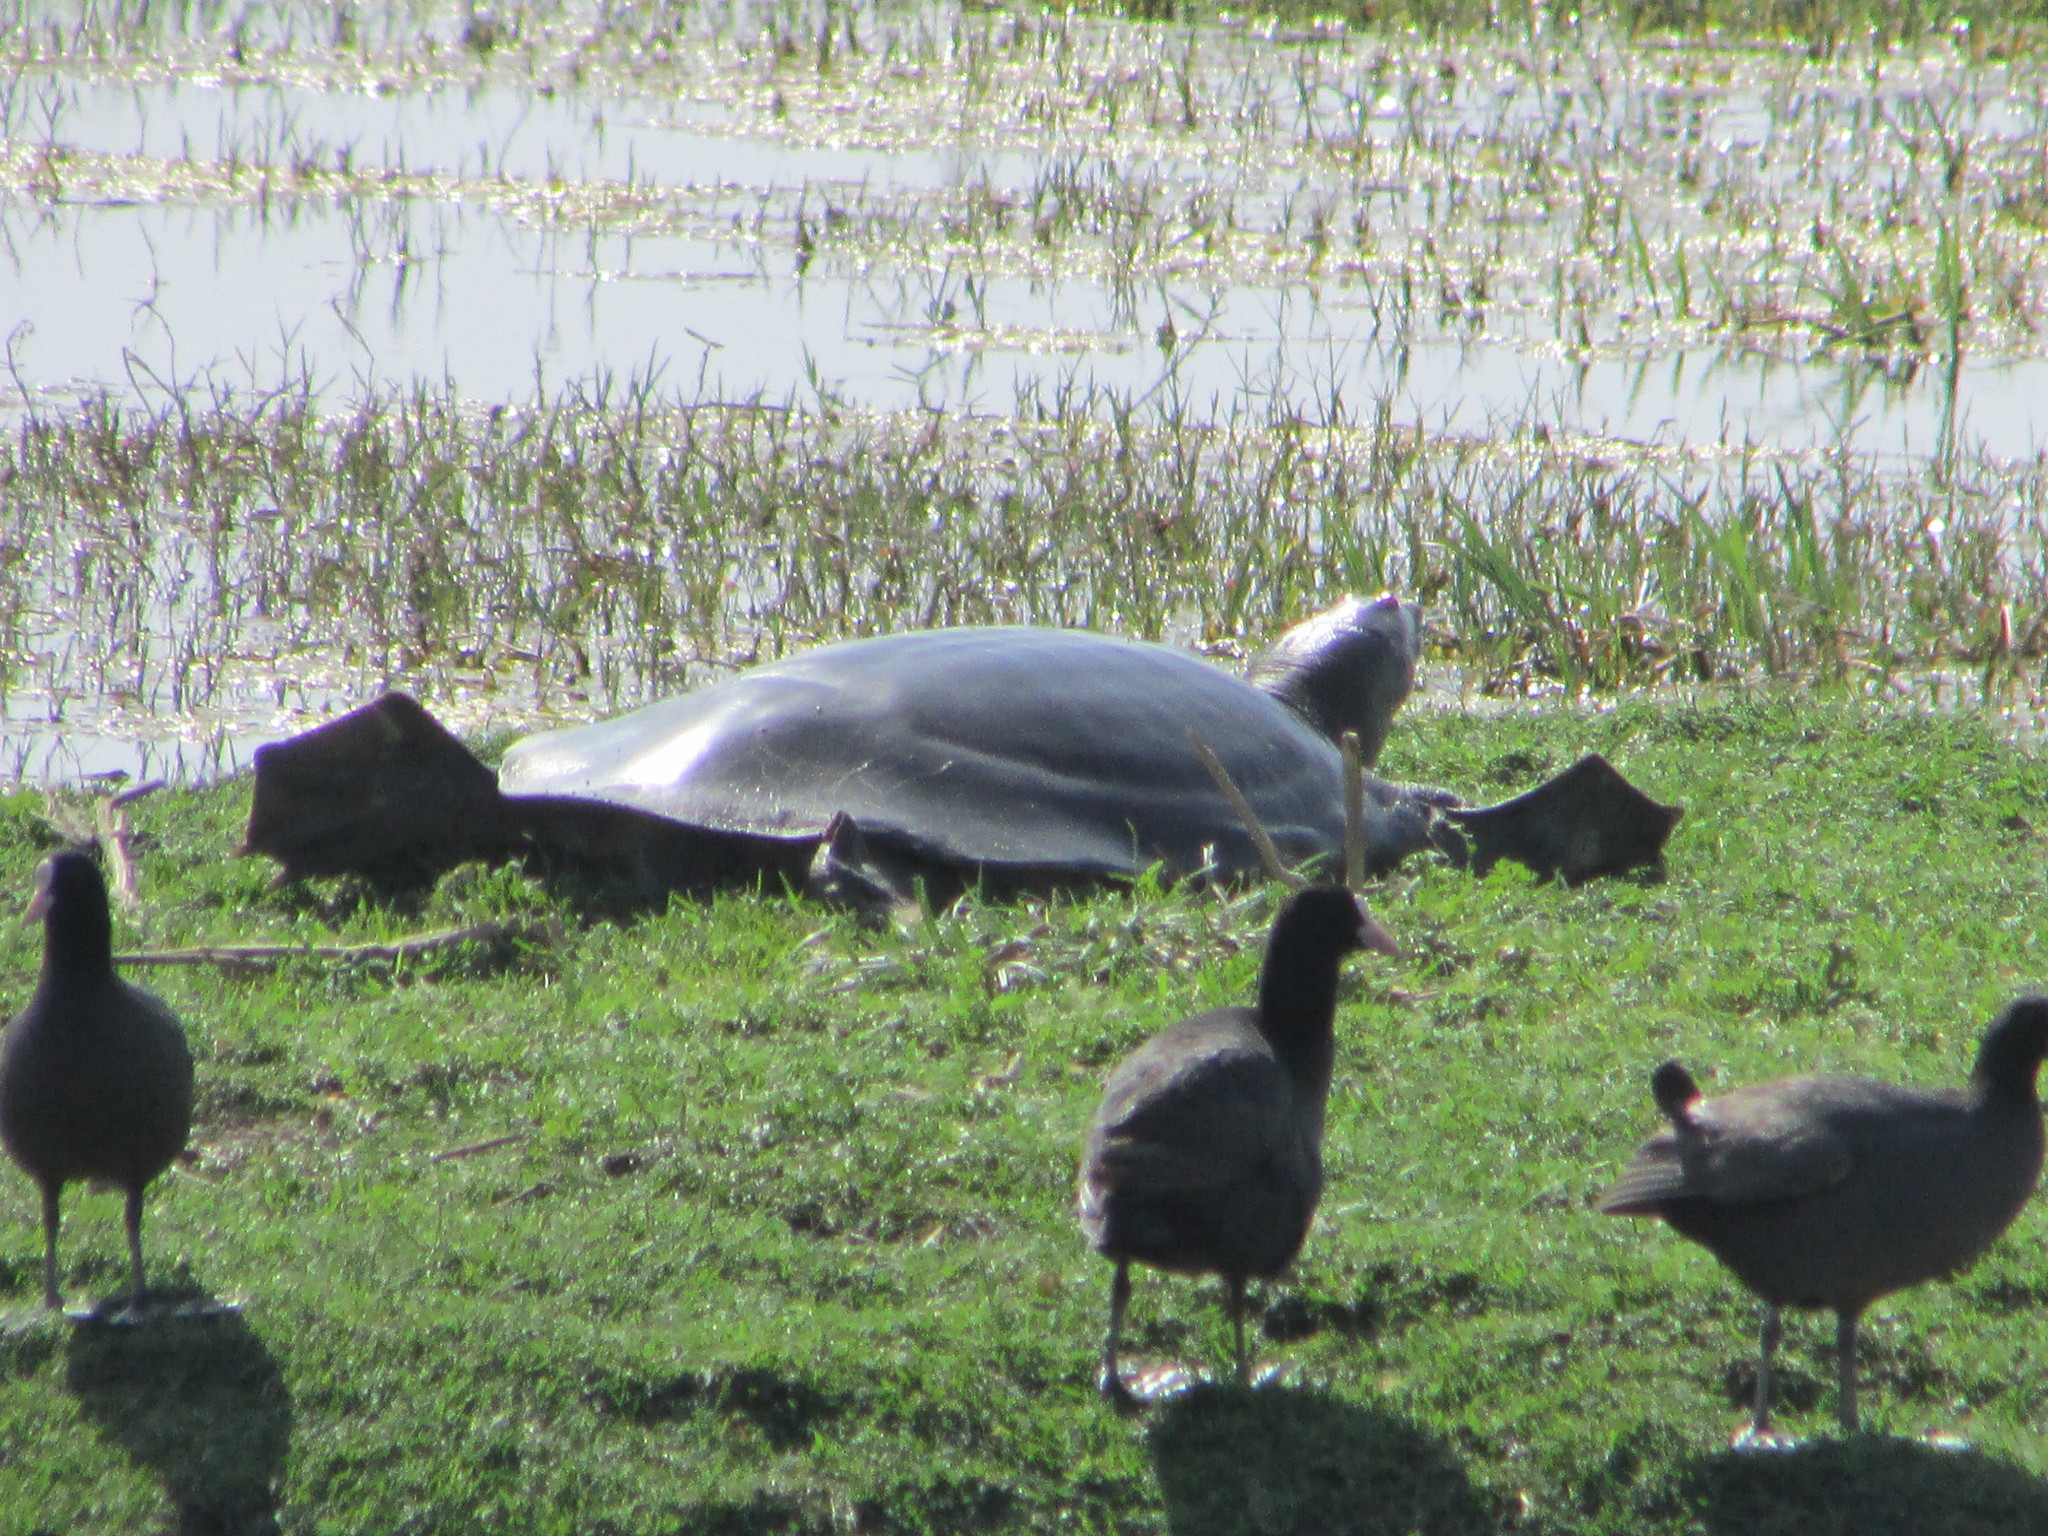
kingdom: Animalia
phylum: Chordata
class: Testudines
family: Trionychidae
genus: Nilssonia
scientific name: Nilssonia gangetica
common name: Indian softshell turtle
